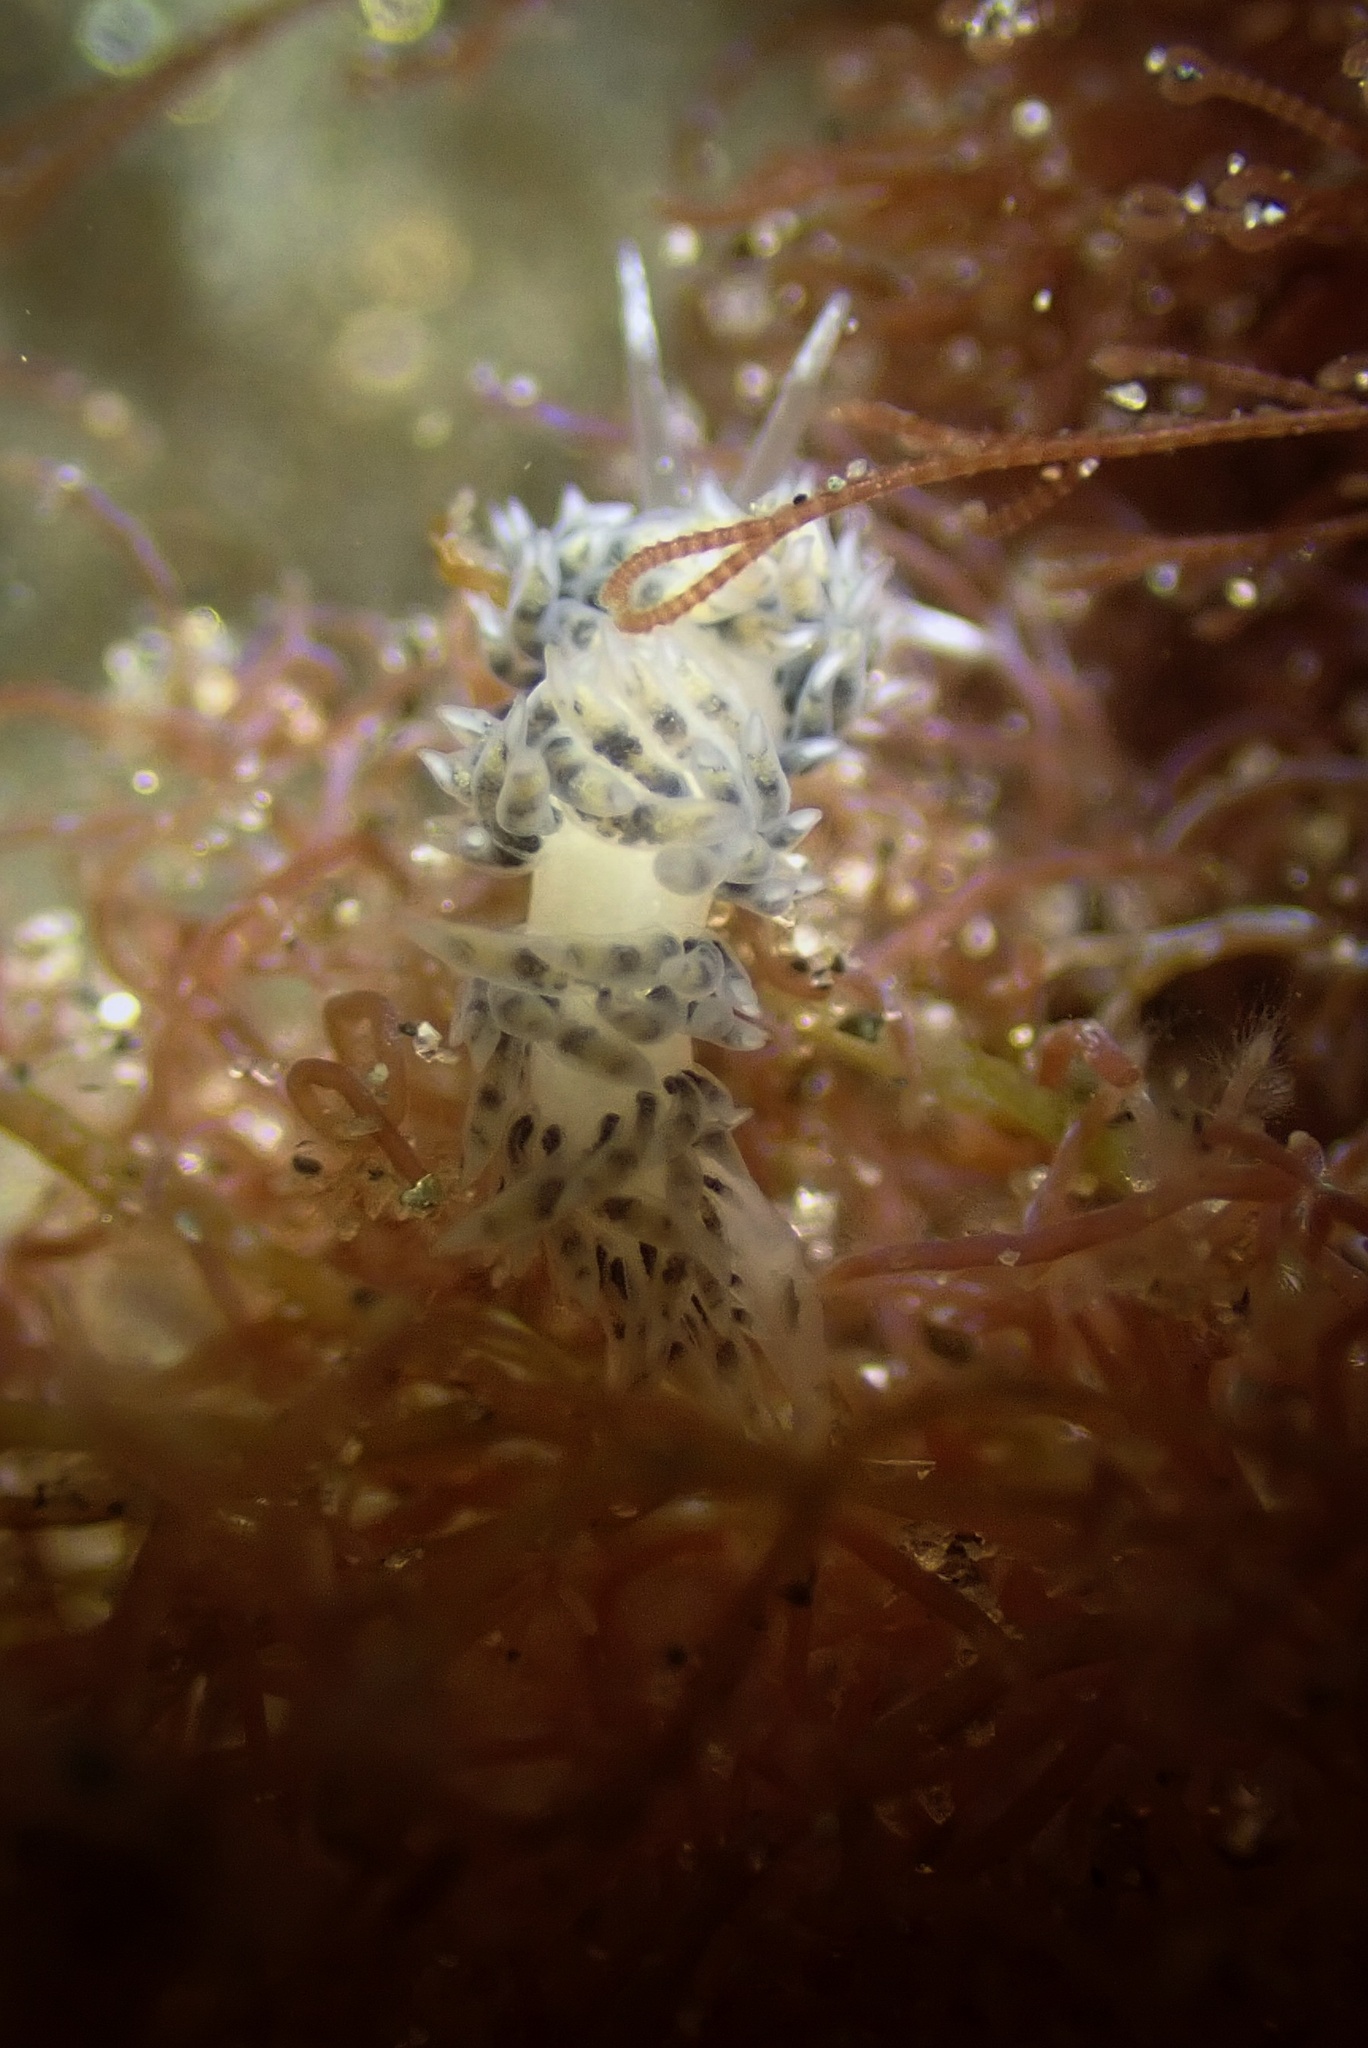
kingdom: Animalia
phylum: Mollusca
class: Gastropoda
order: Nudibranchia
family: Facelinidae
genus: Emarcusia
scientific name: Emarcusia morroensis
